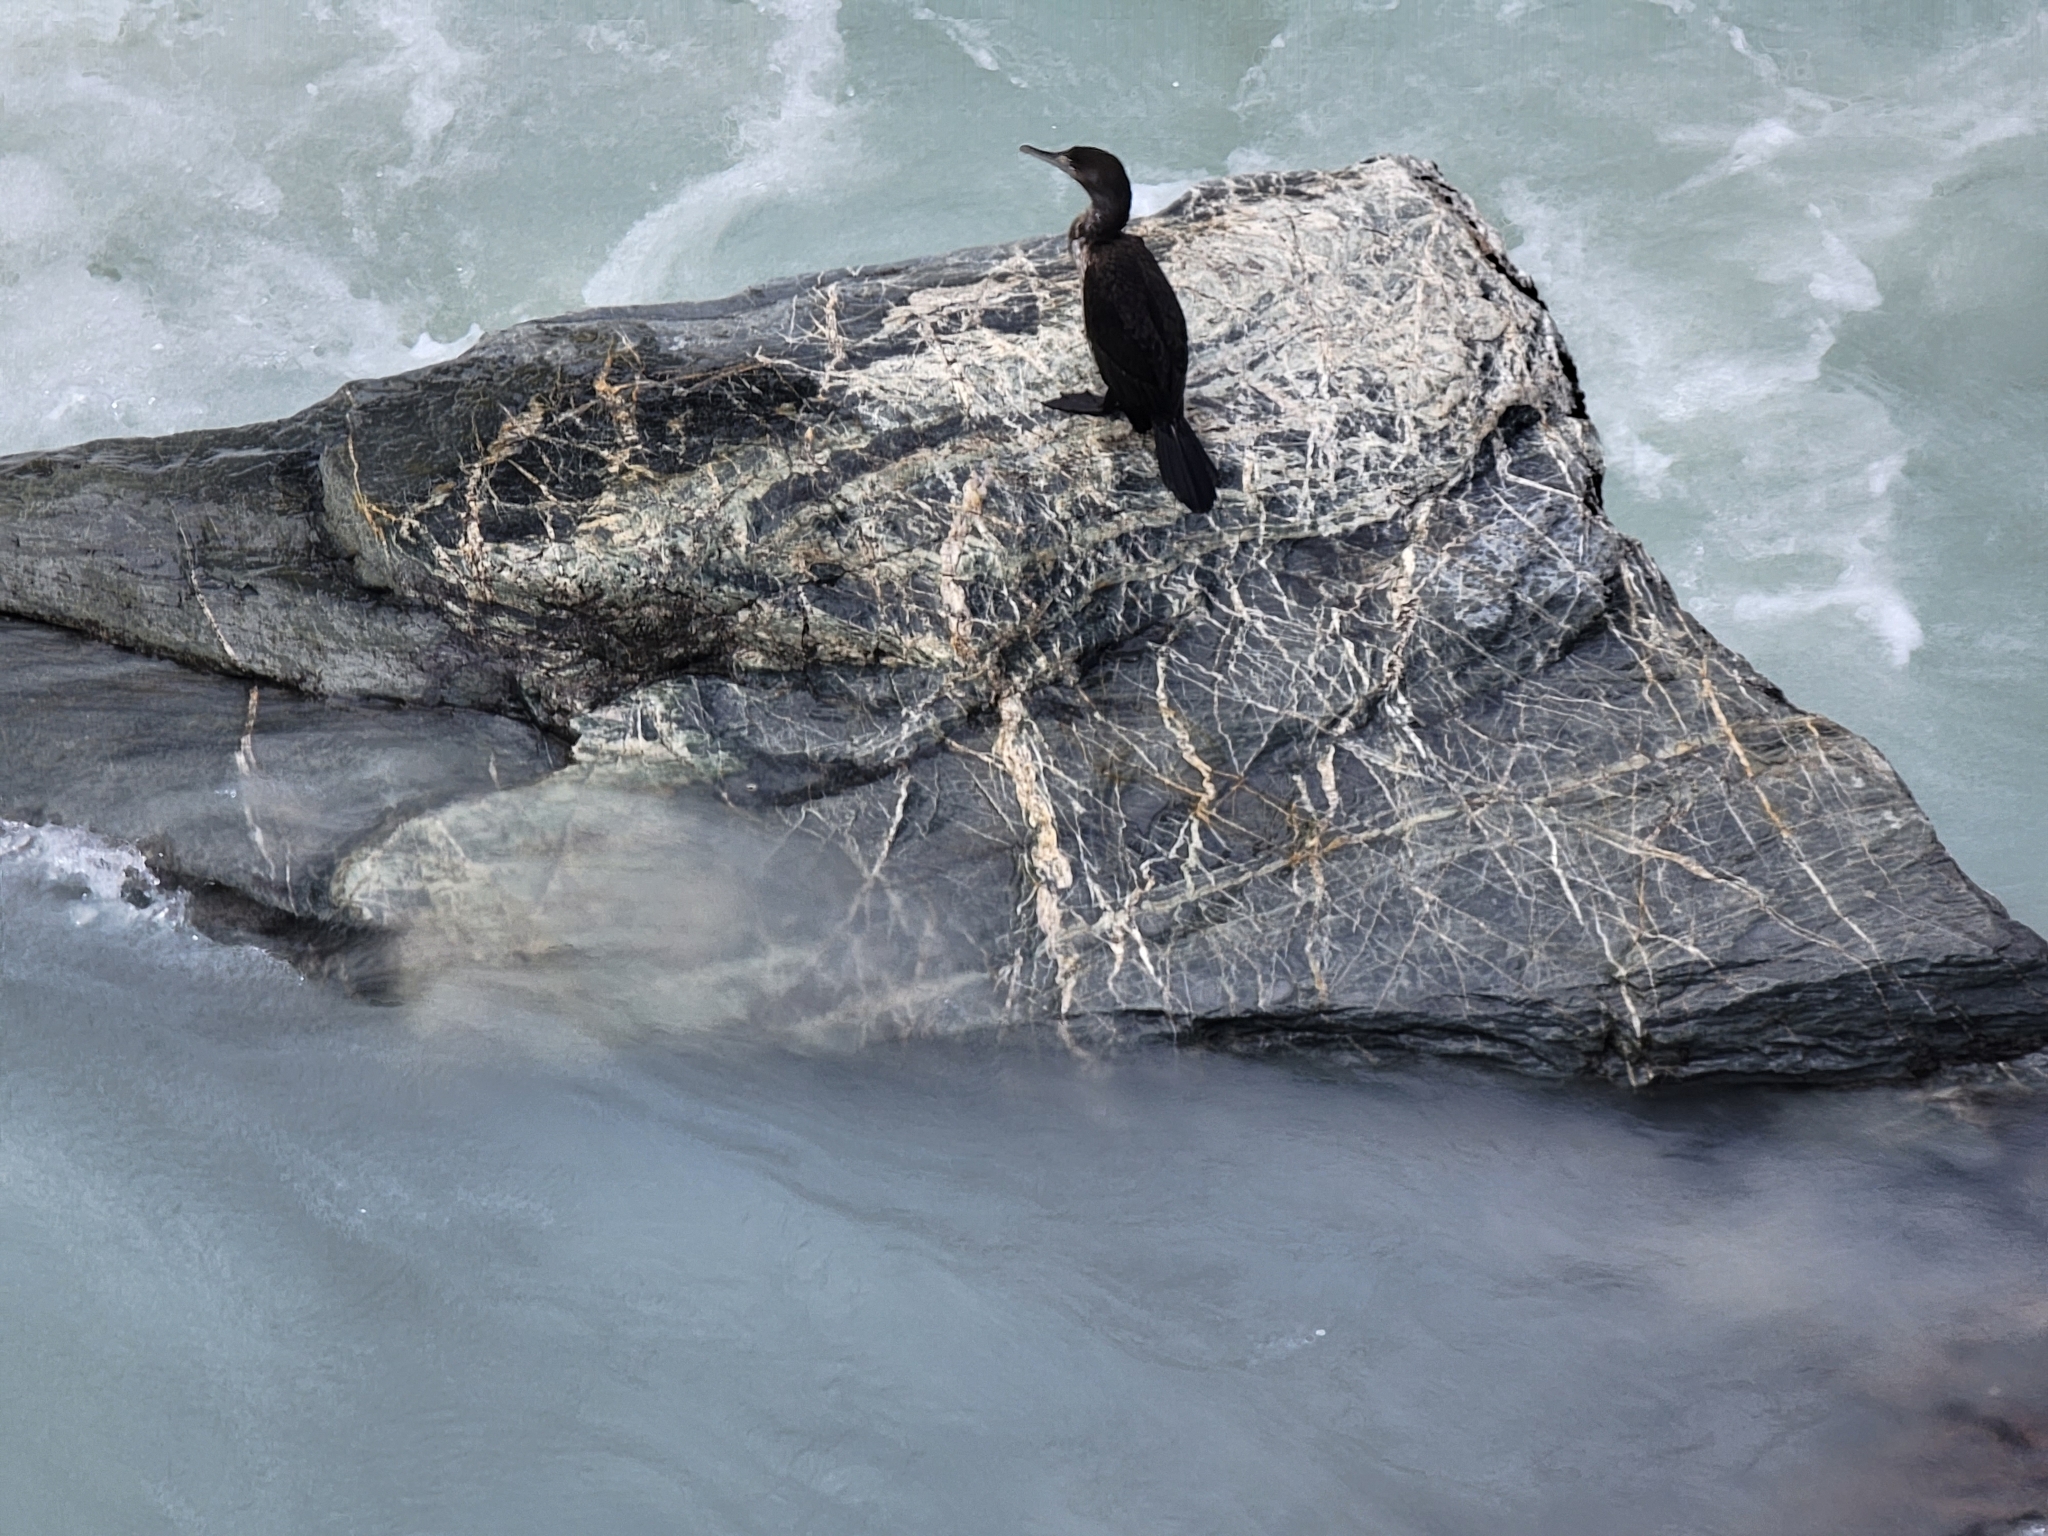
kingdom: Animalia
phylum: Chordata
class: Aves
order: Suliformes
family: Phalacrocoracidae
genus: Phalacrocorax
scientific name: Phalacrocorax varius
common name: Pied cormorant
